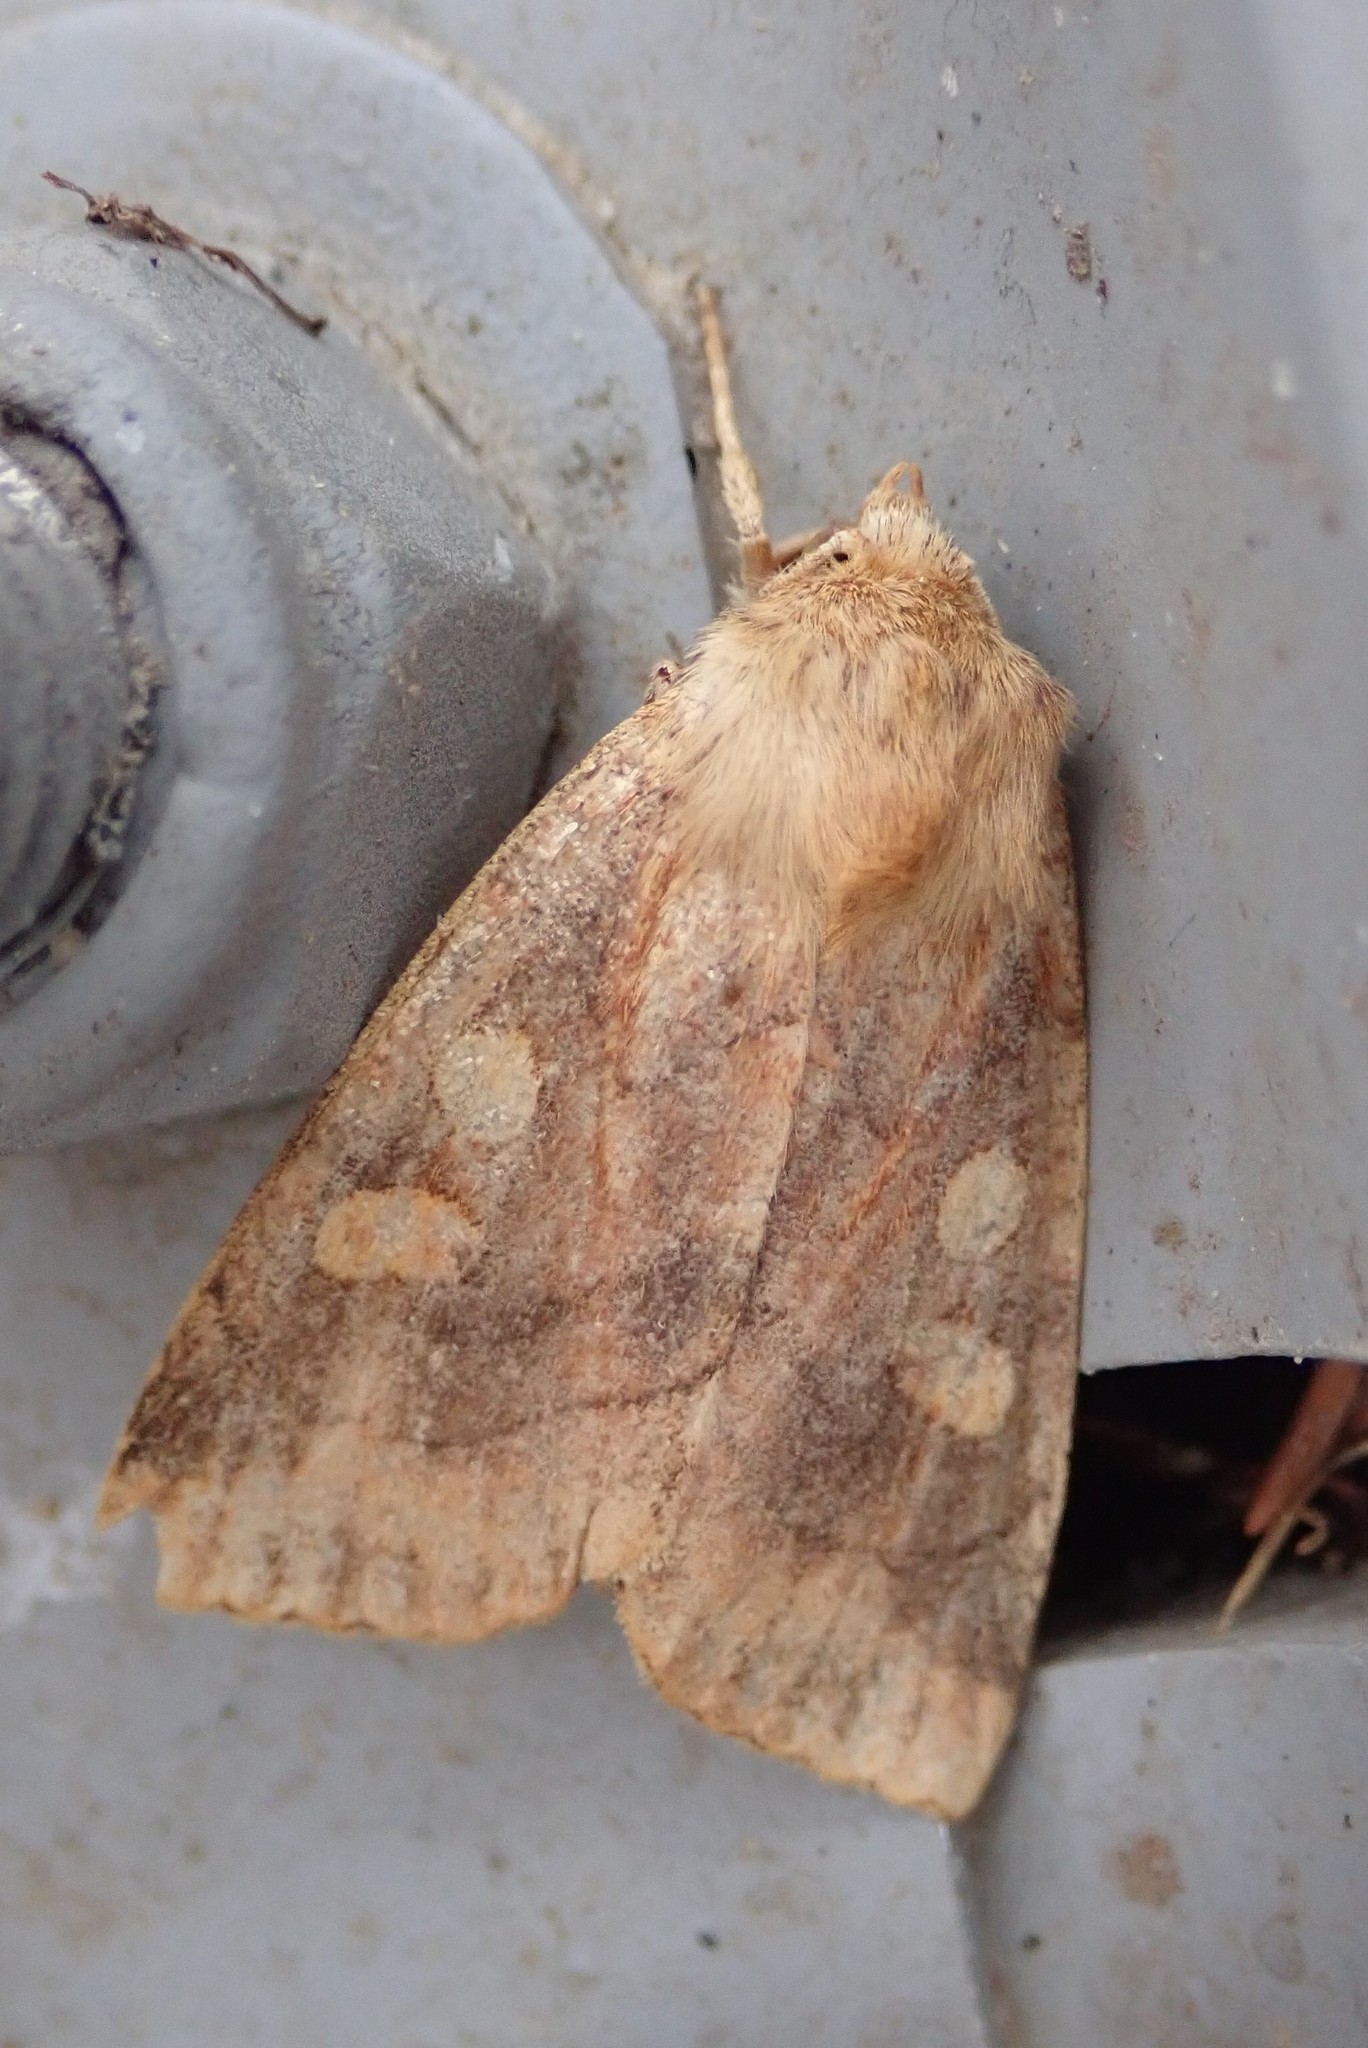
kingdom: Animalia
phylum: Arthropoda
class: Insecta
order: Lepidoptera
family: Noctuidae
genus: Enargia
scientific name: Enargia decolor
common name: Aspen twoleaf tier moth
